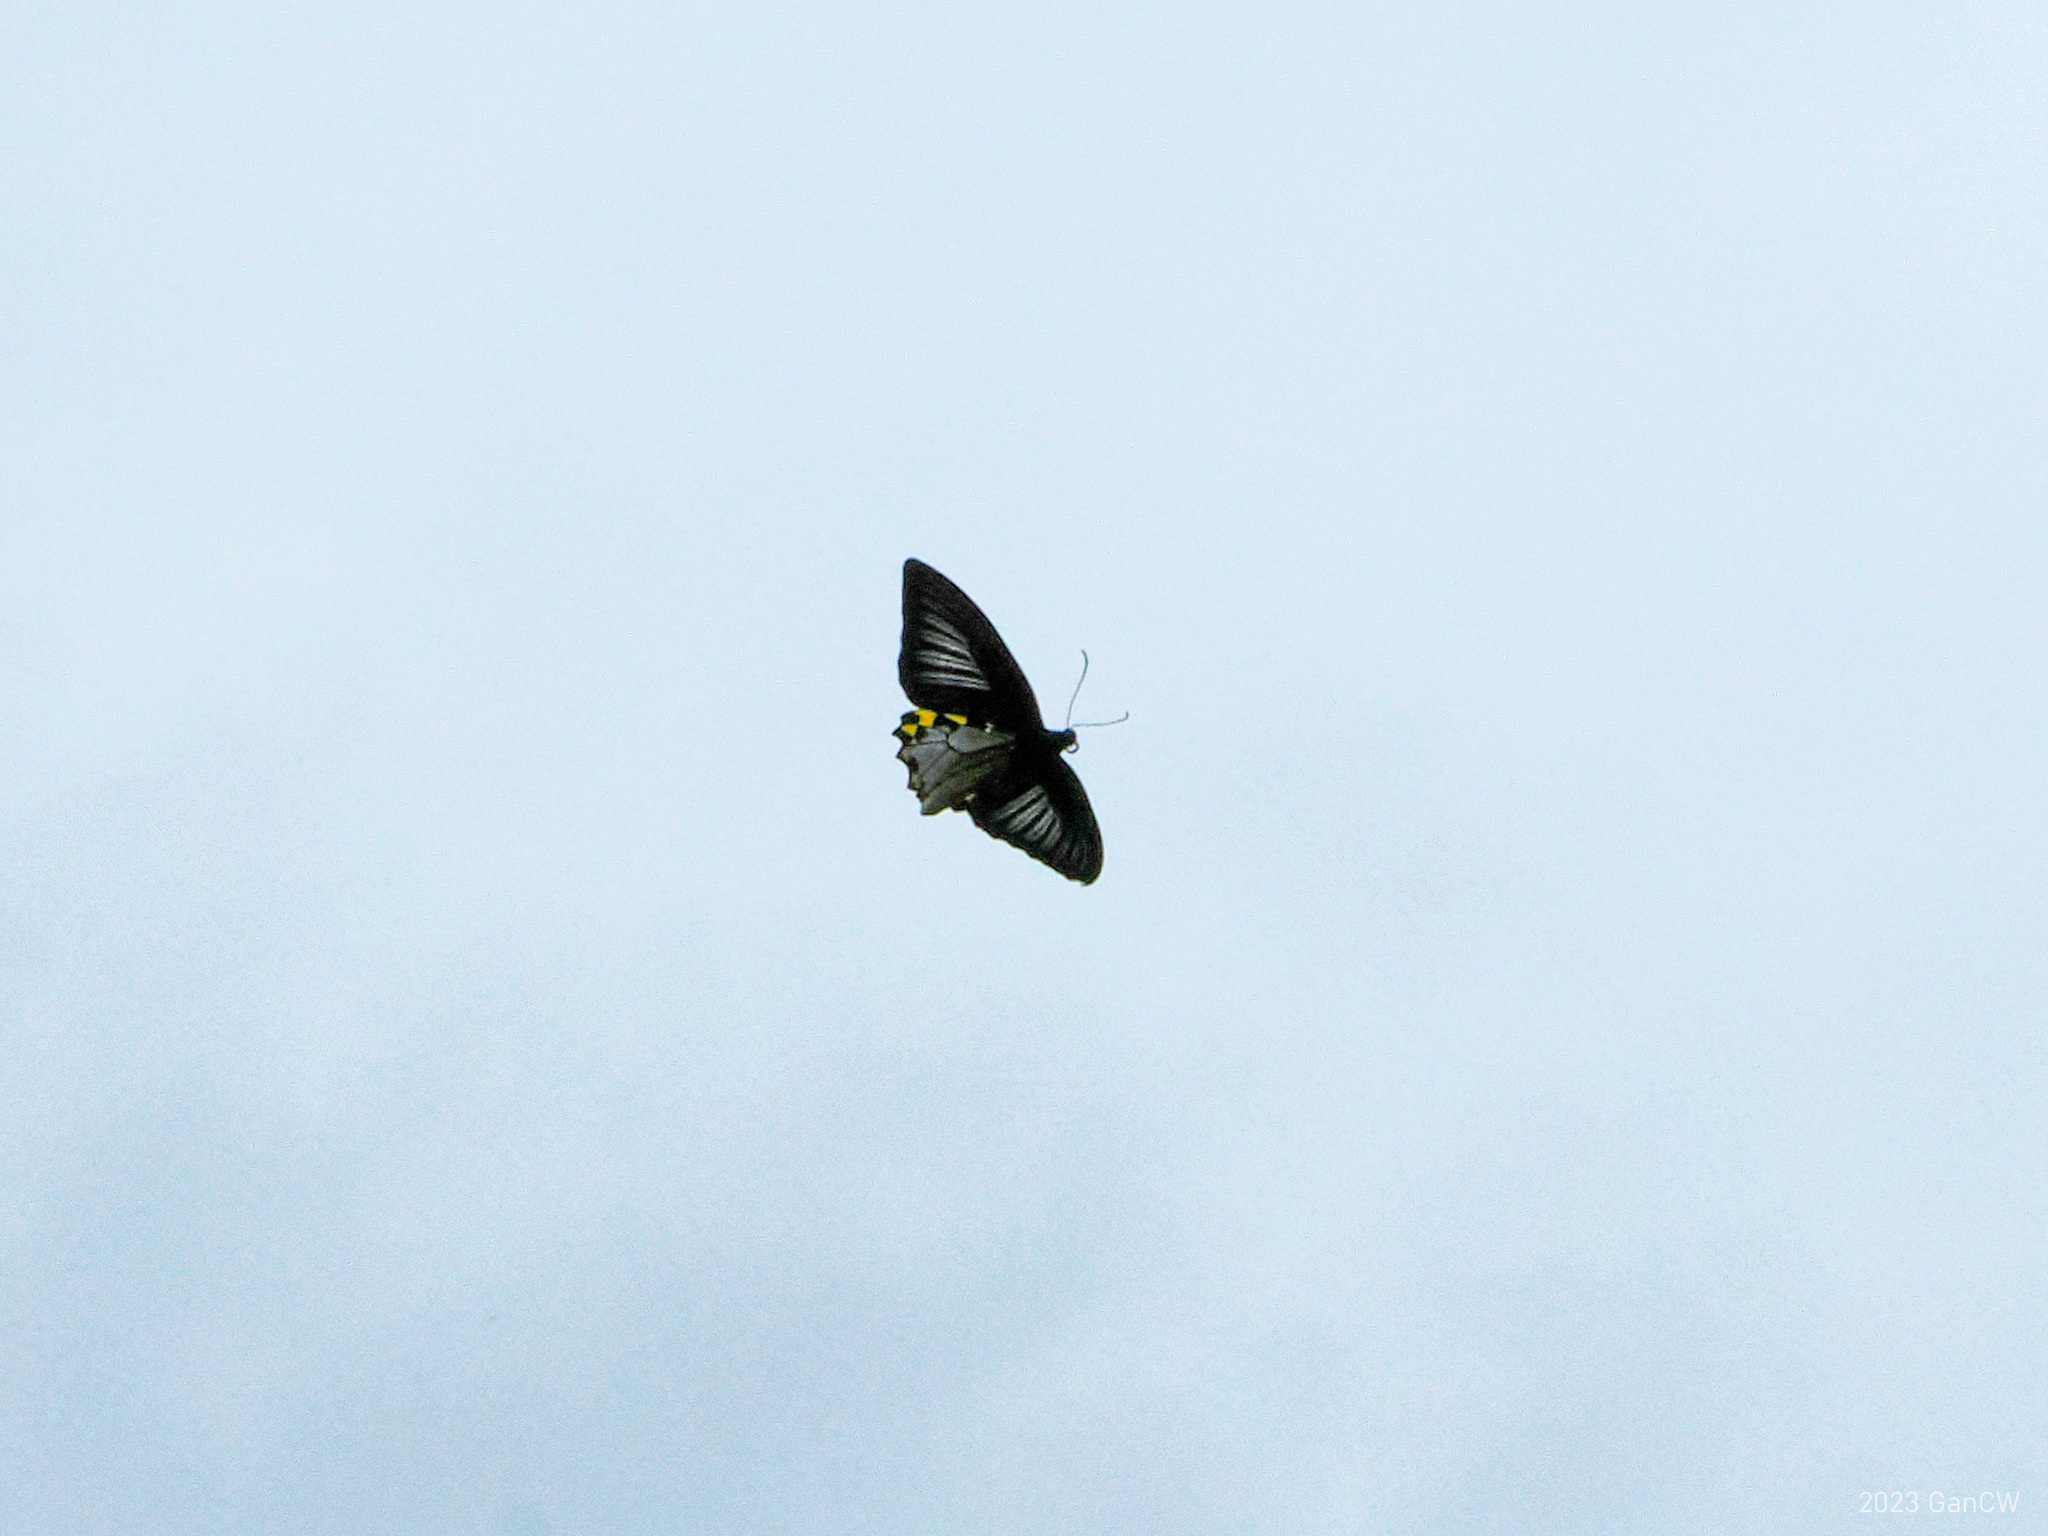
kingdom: Animalia
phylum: Arthropoda
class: Insecta
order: Lepidoptera
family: Papilionidae
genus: Troides
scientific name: Troides hypolitus
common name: Rippon’s birdwing
